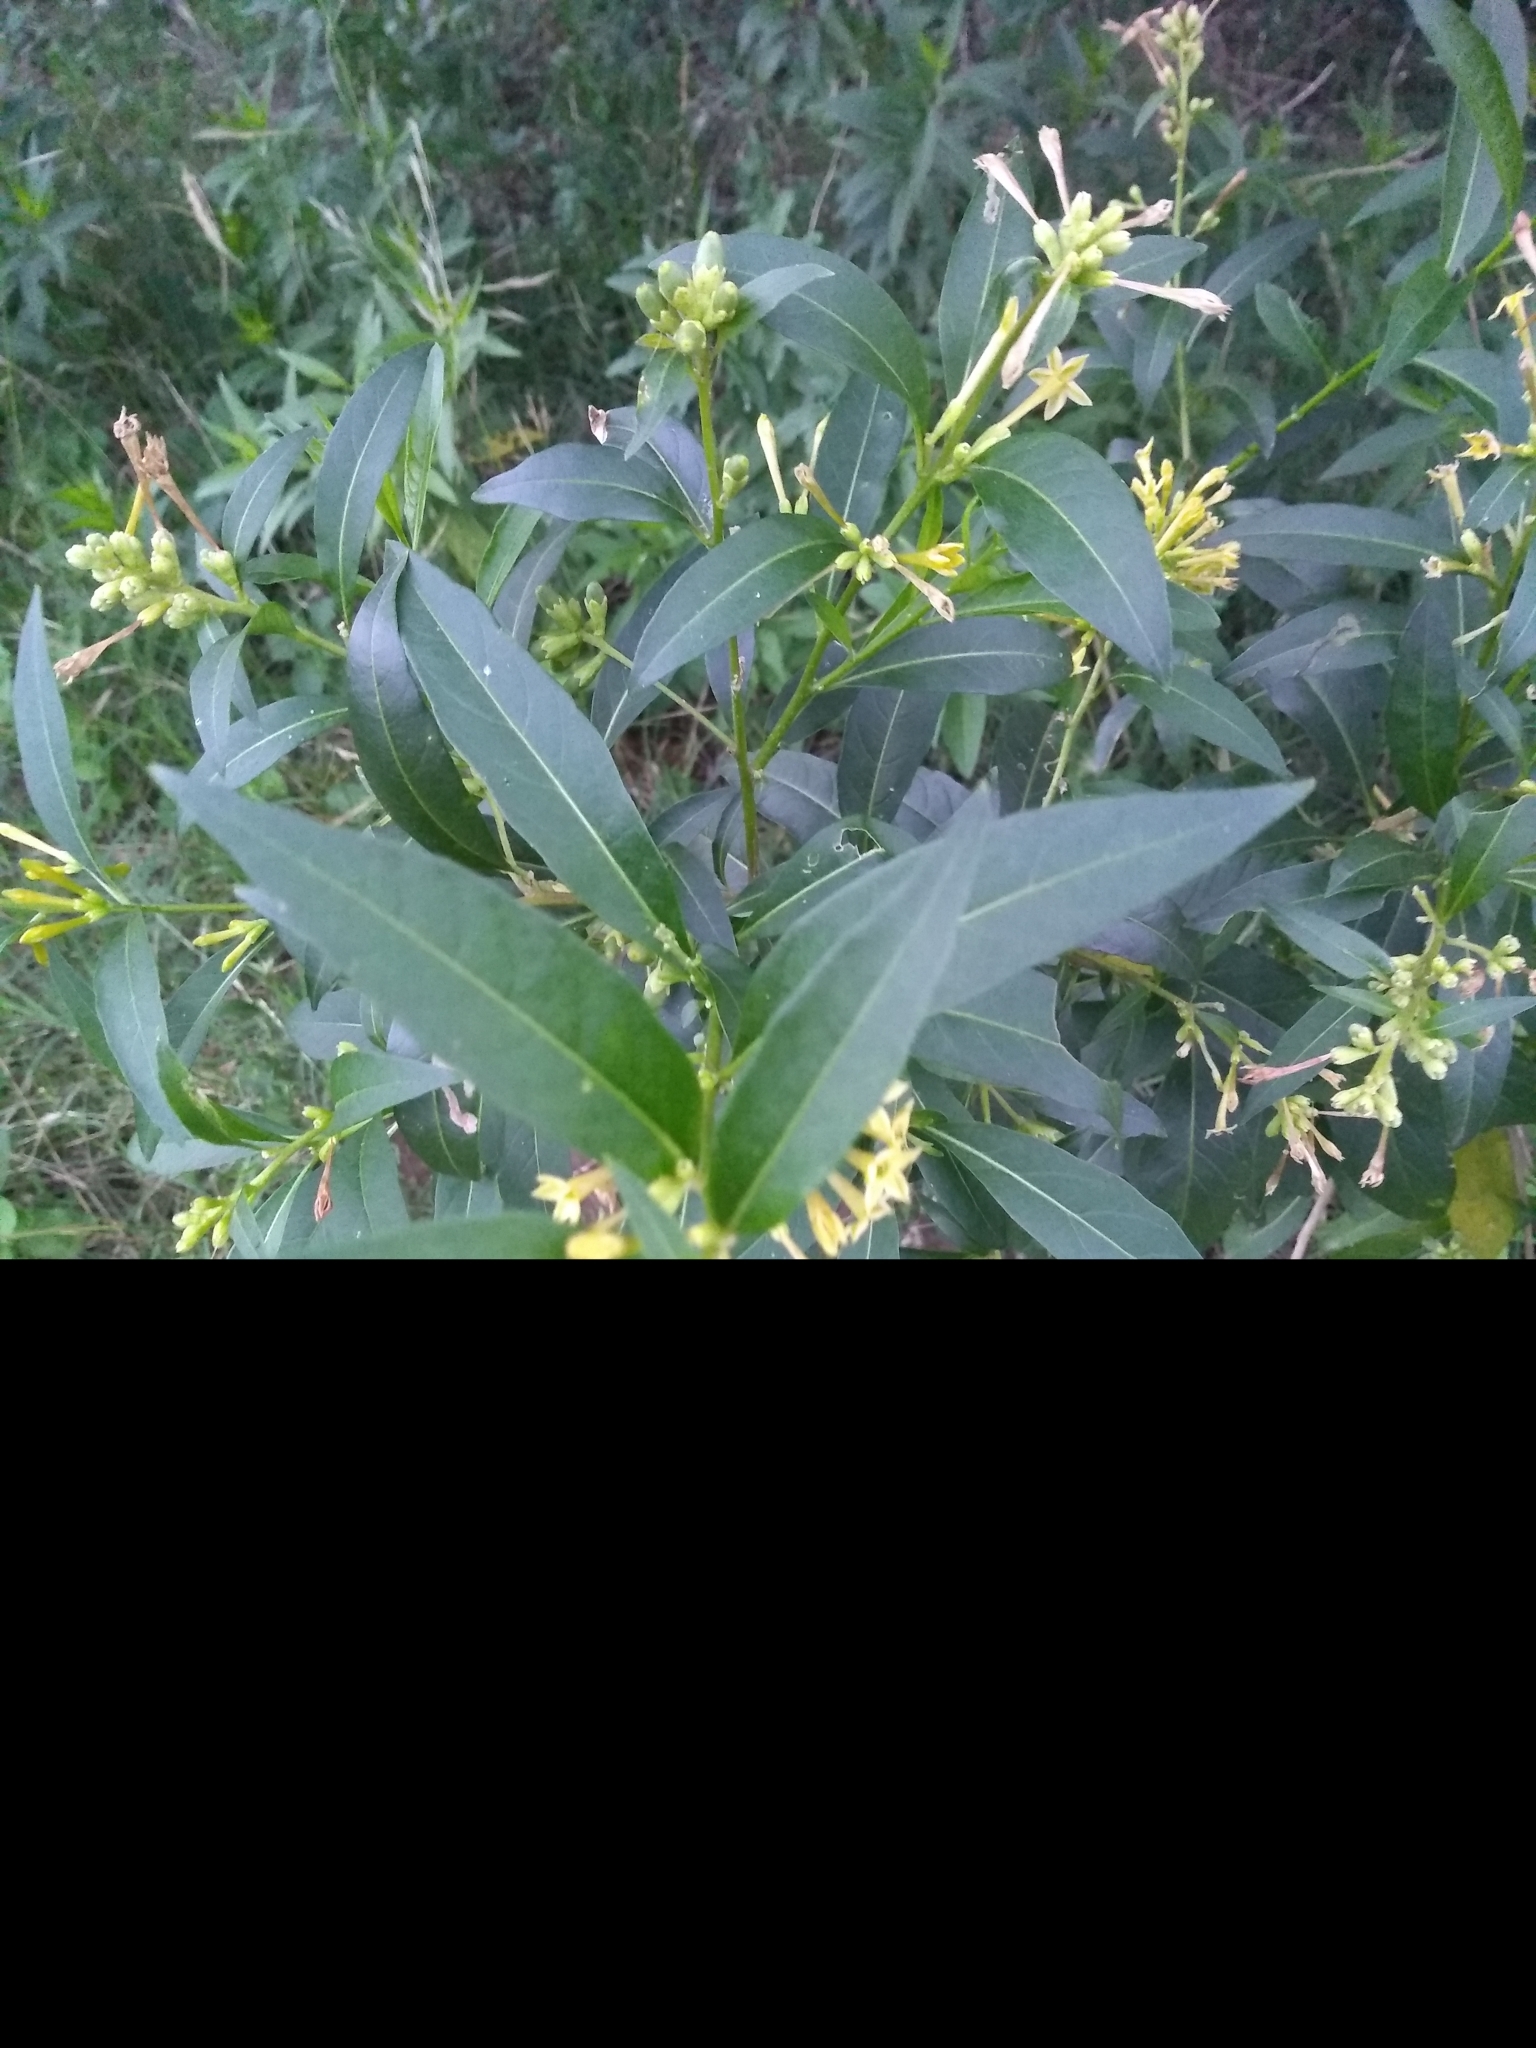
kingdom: Plantae
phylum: Tracheophyta
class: Magnoliopsida
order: Solanales
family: Solanaceae
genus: Cestrum
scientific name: Cestrum parqui
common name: Chilean cestrum
